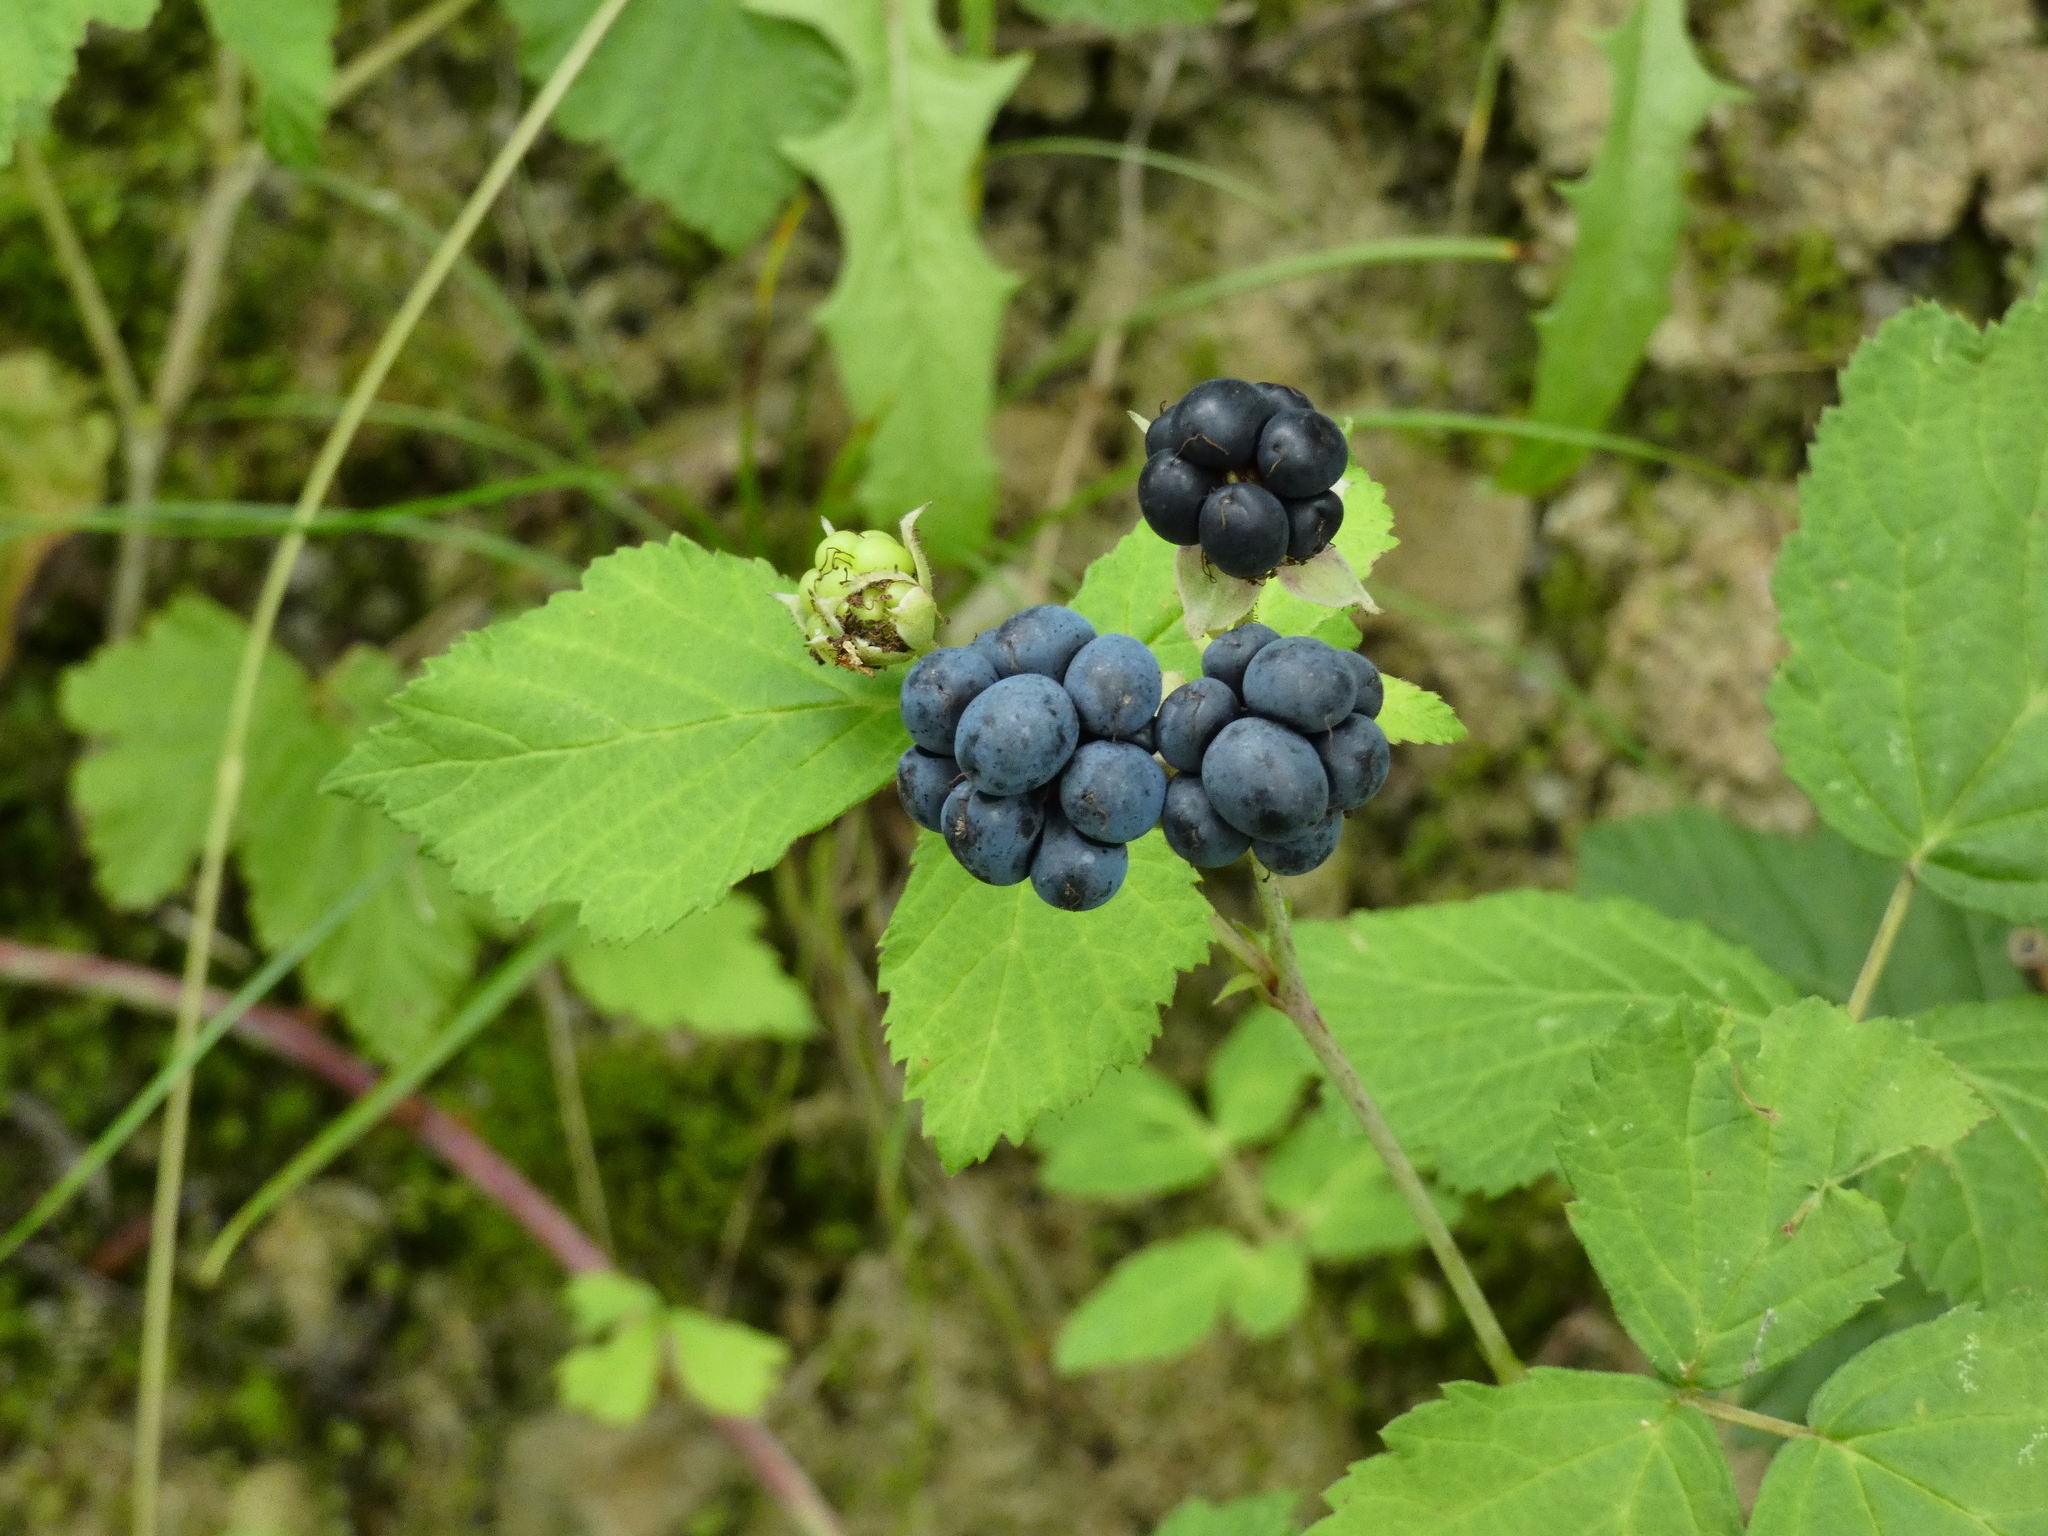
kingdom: Plantae
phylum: Tracheophyta
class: Magnoliopsida
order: Rosales
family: Rosaceae
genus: Rubus
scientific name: Rubus caesius
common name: Dewberry
